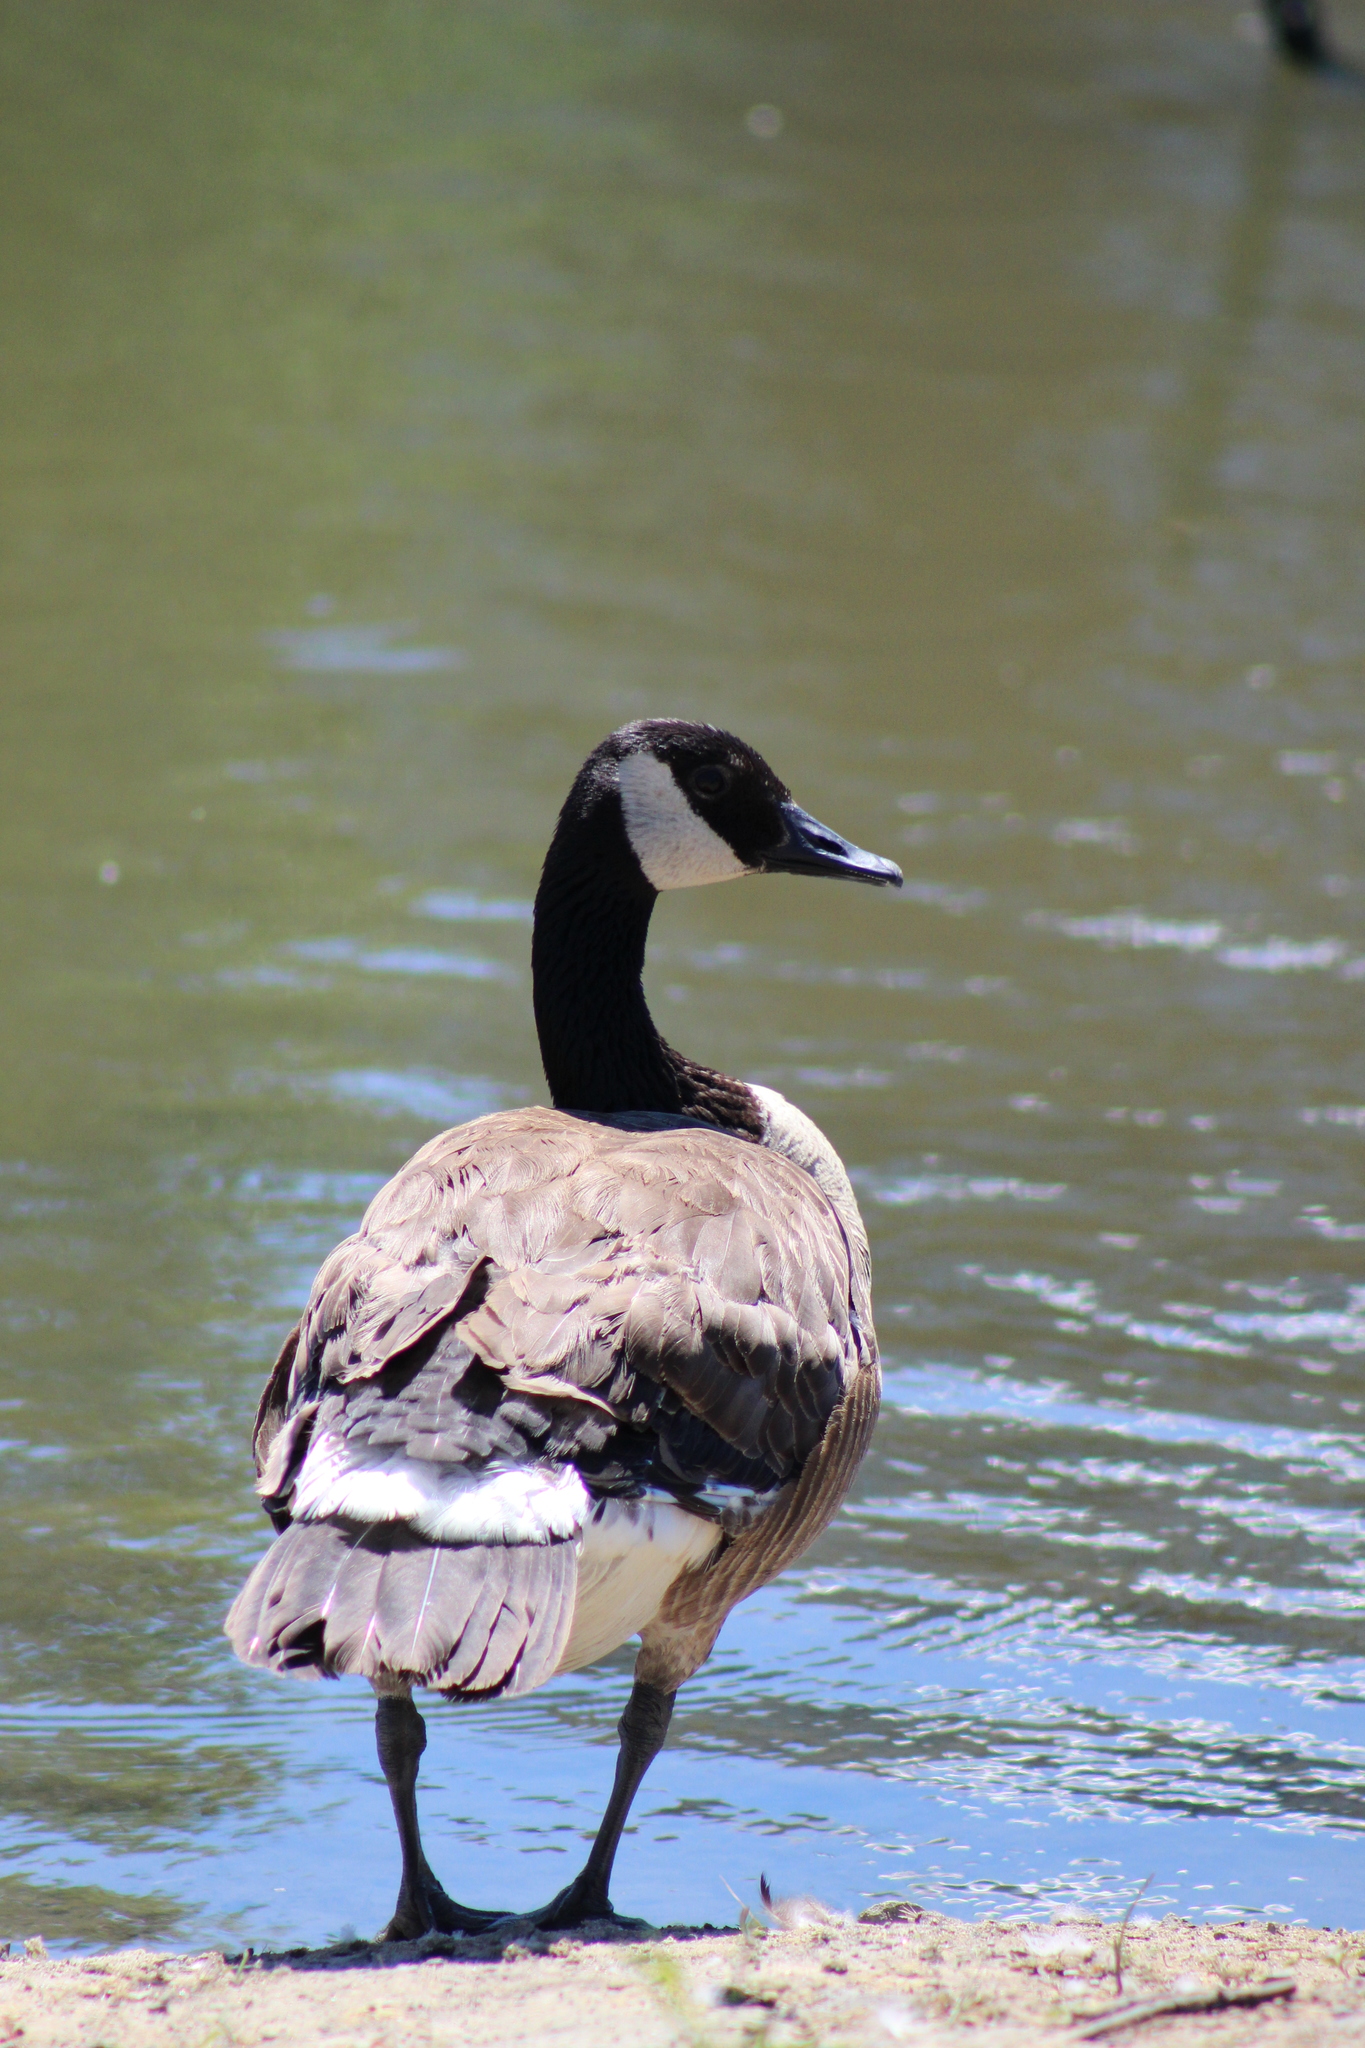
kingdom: Animalia
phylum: Chordata
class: Aves
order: Anseriformes
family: Anatidae
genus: Branta
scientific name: Branta canadensis
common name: Canada goose
